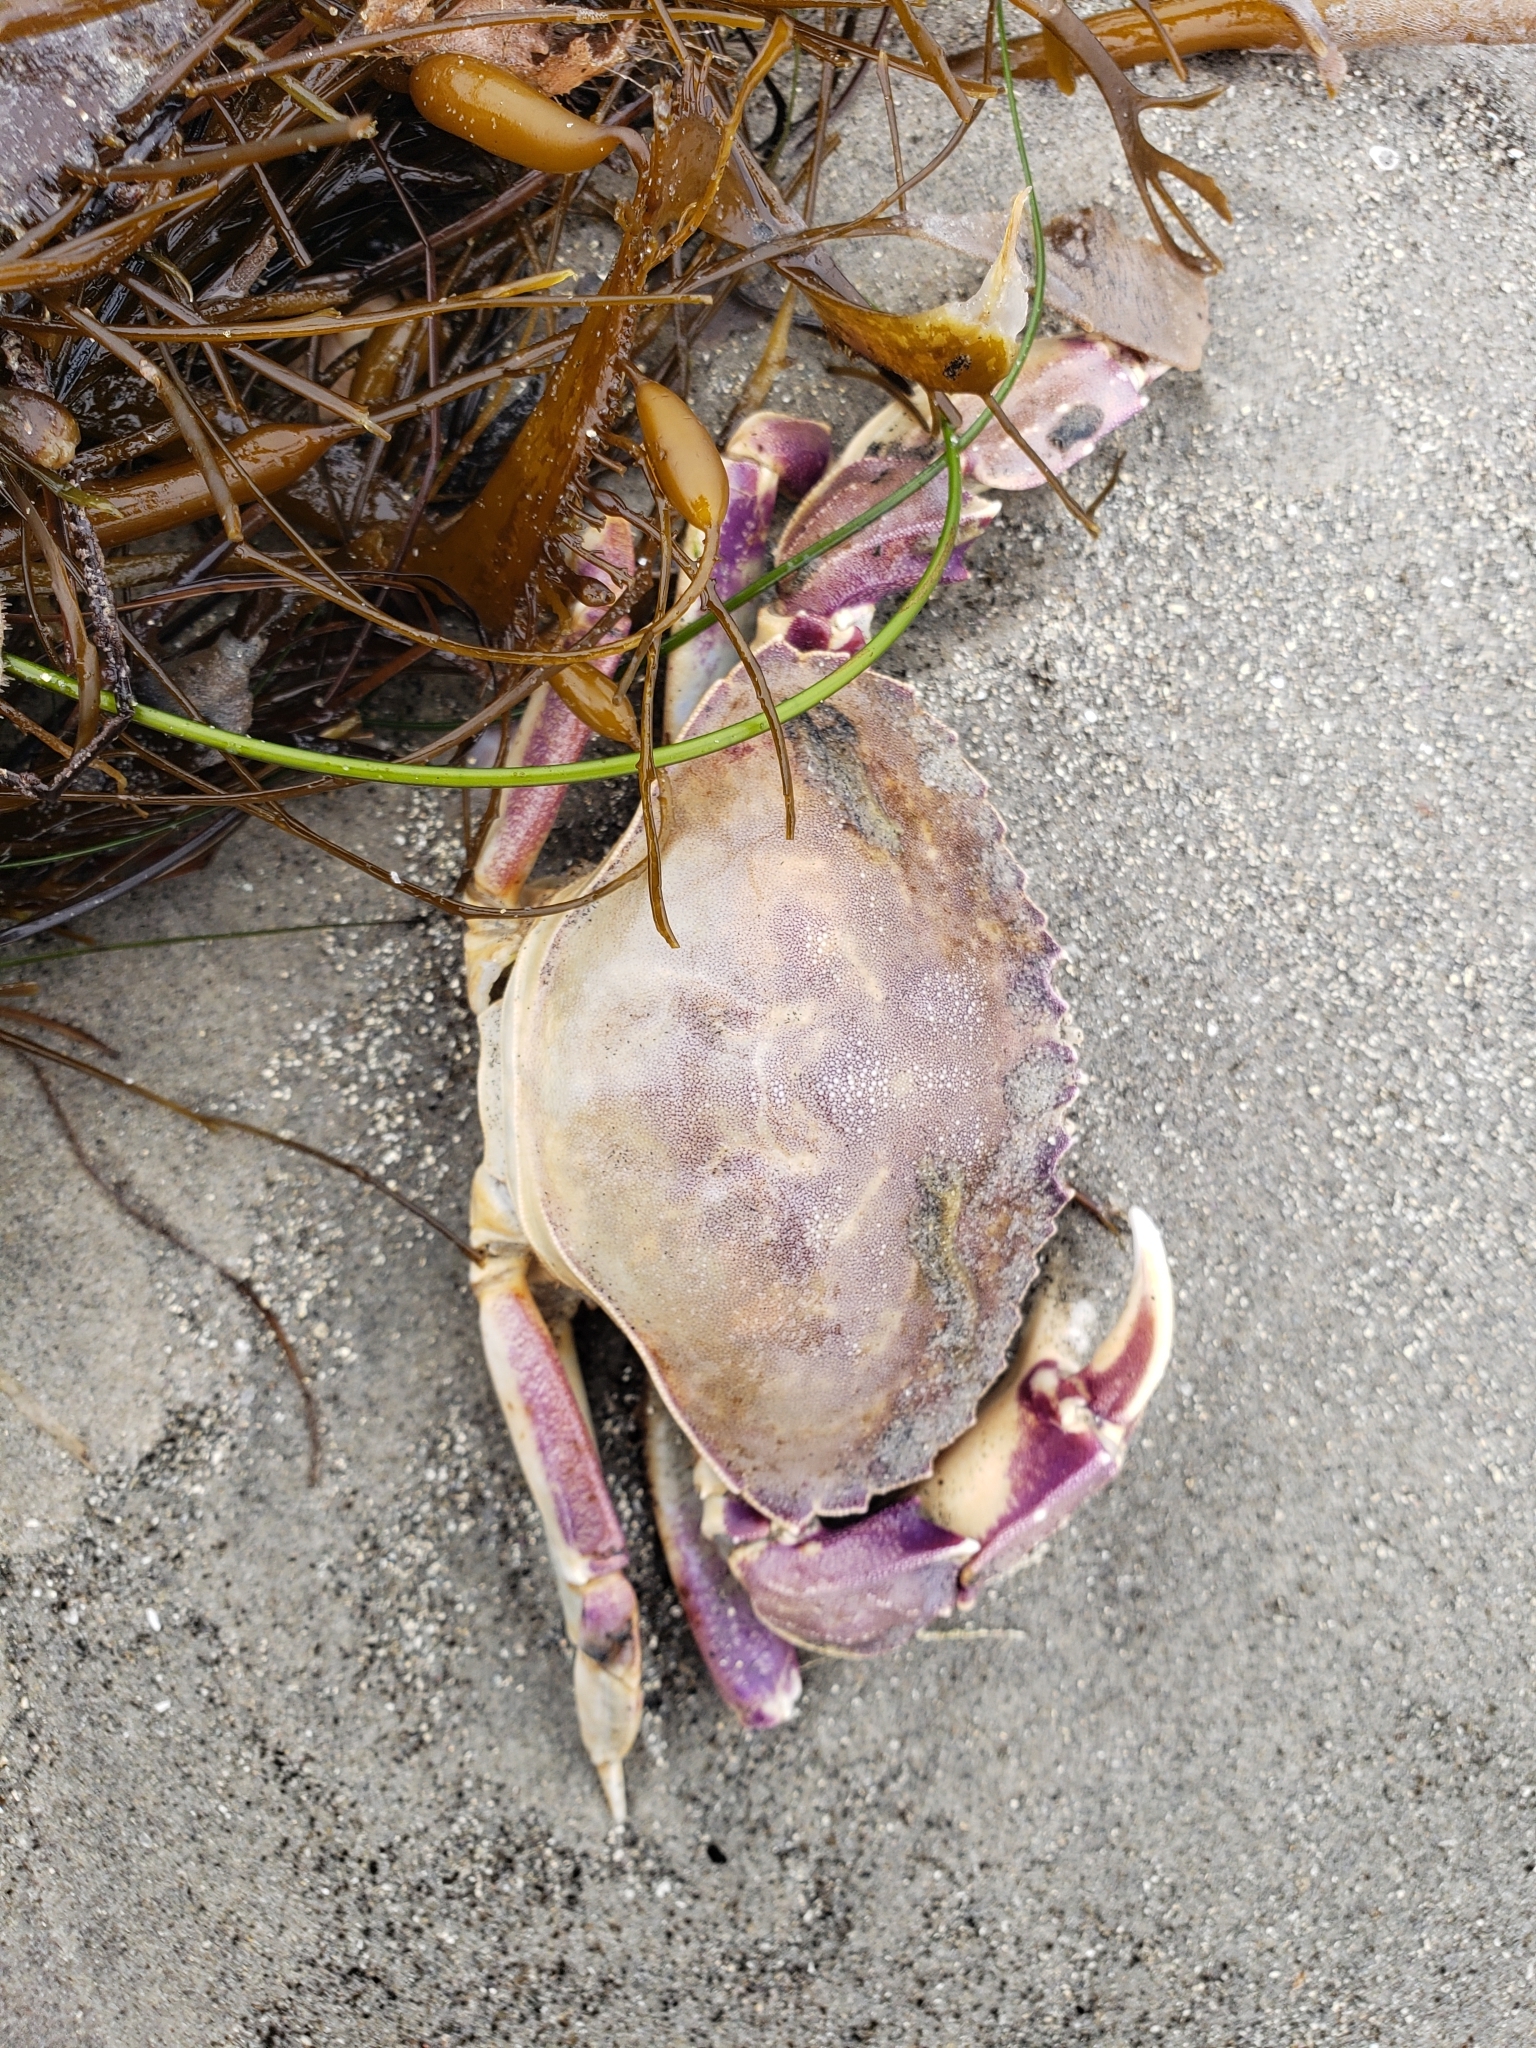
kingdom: Animalia
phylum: Arthropoda
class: Malacostraca
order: Decapoda
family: Cancridae
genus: Metacarcinus
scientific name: Metacarcinus gracilis
